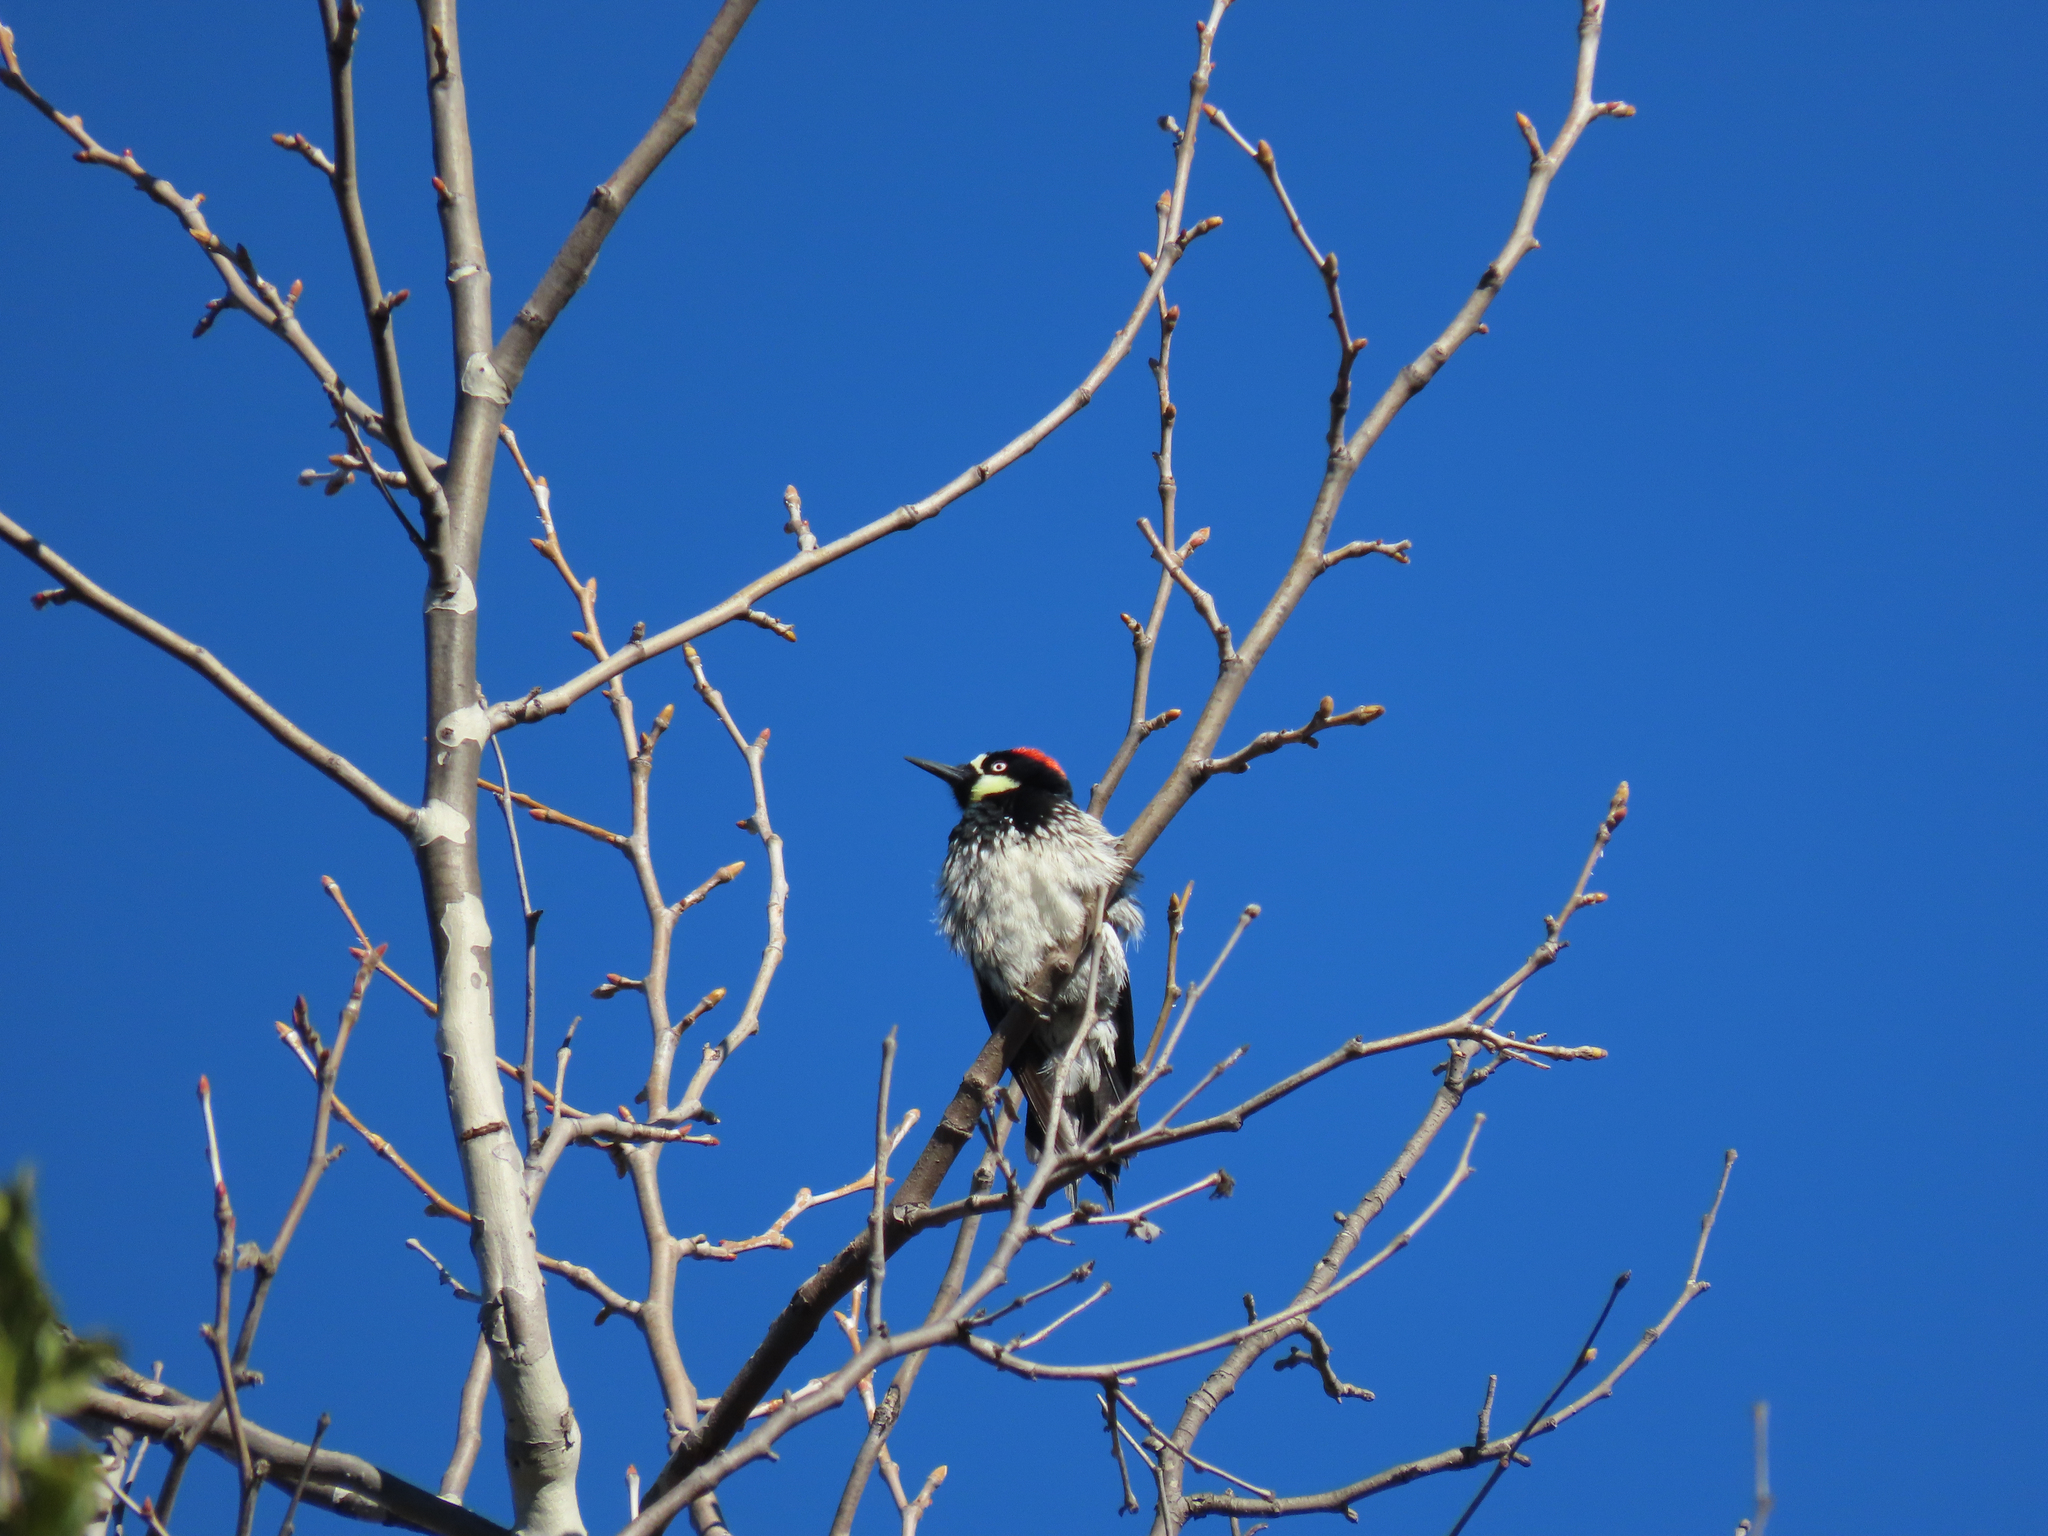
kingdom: Animalia
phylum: Chordata
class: Aves
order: Piciformes
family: Picidae
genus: Melanerpes
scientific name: Melanerpes formicivorus
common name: Acorn woodpecker
